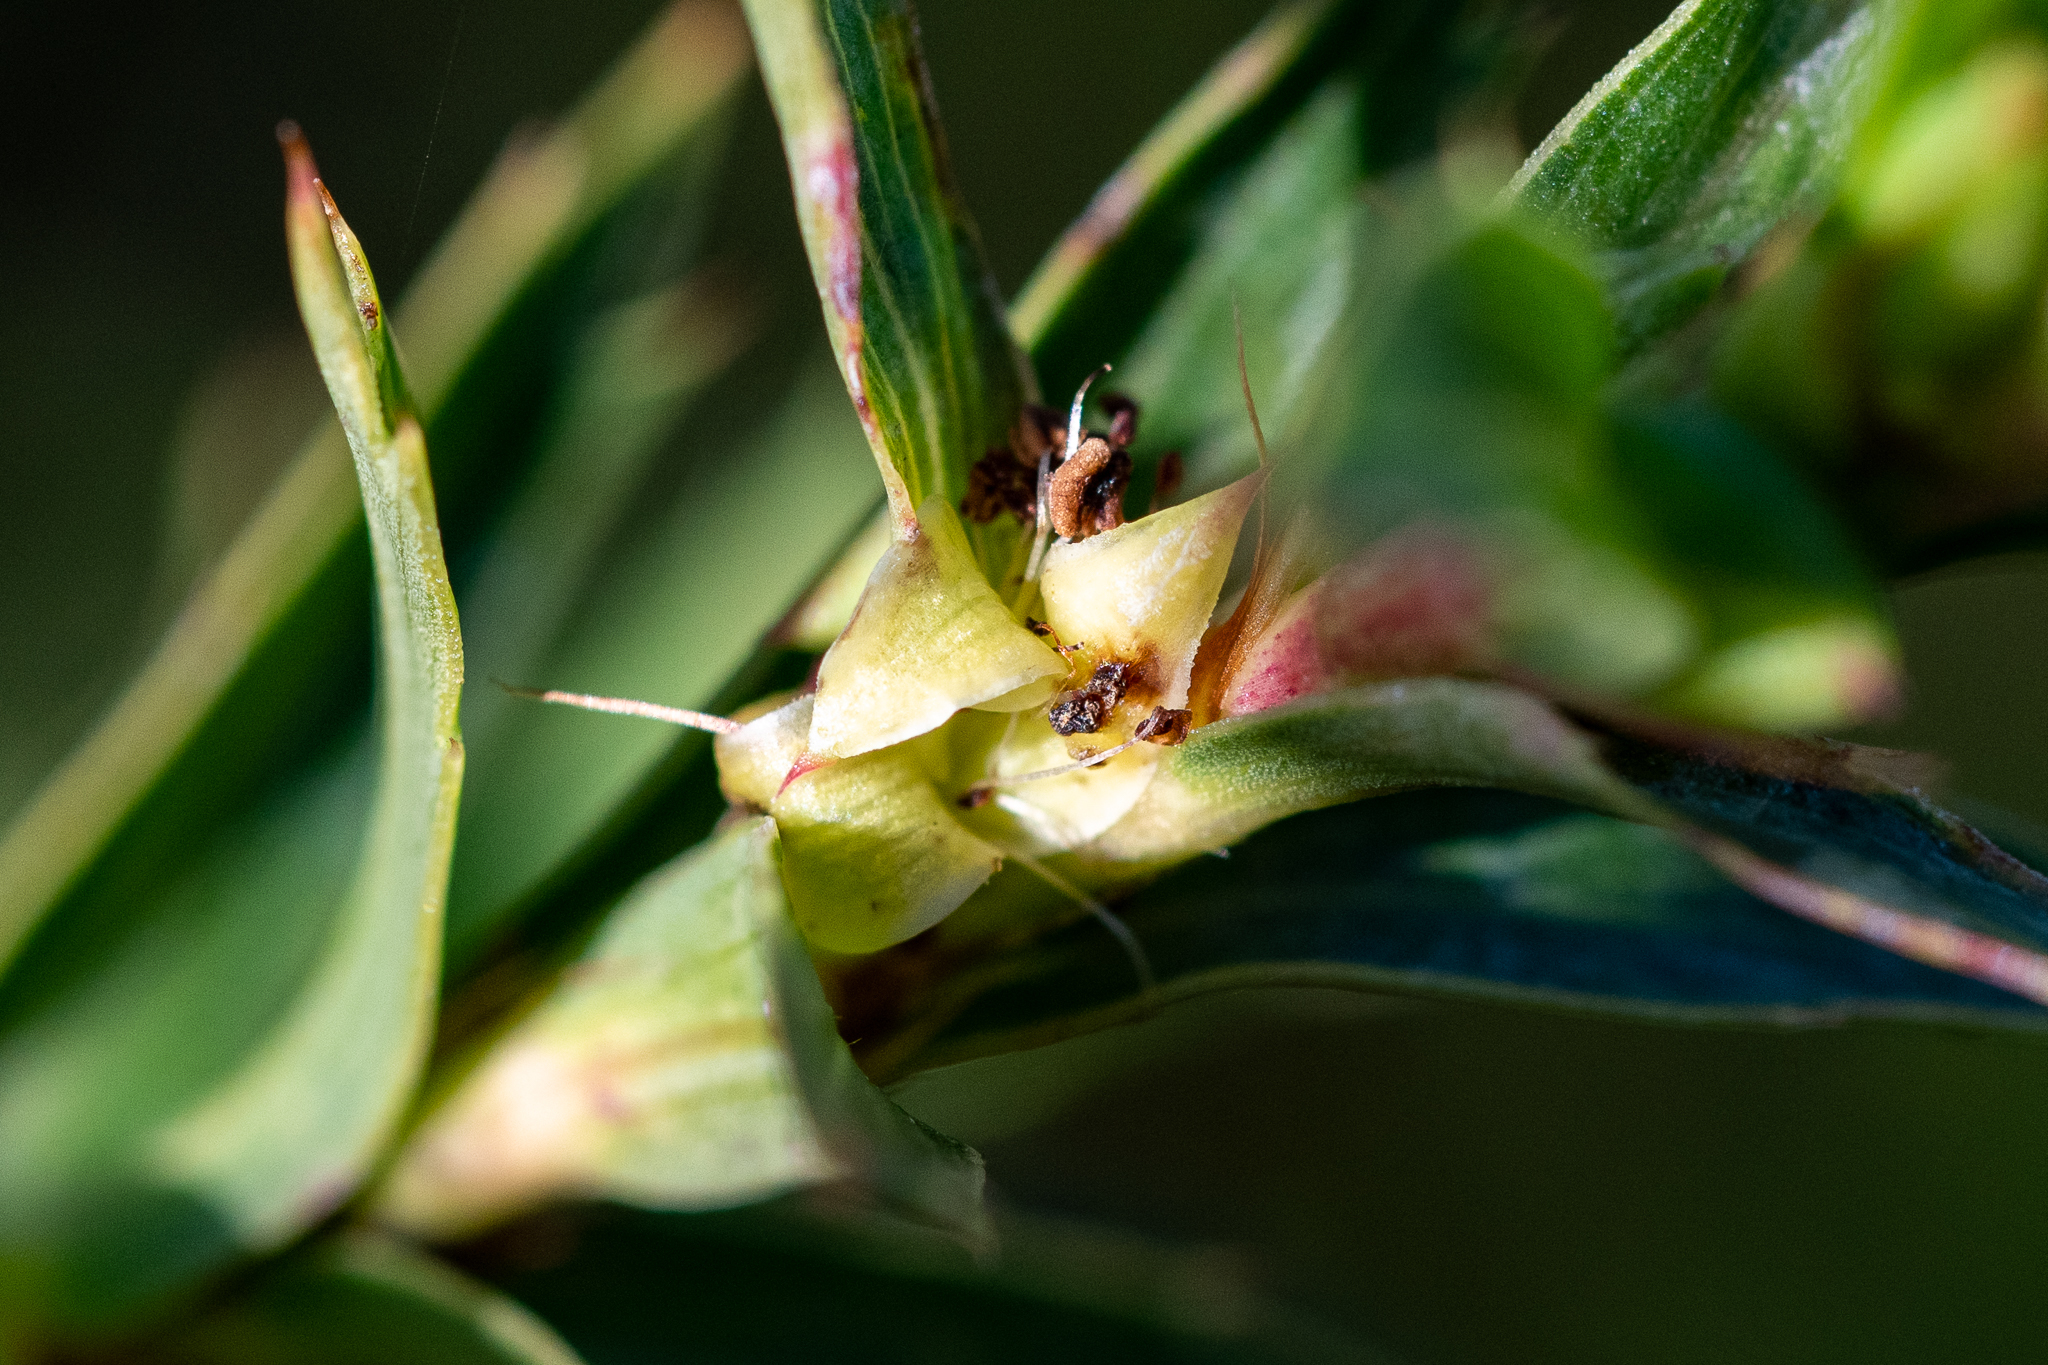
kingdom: Plantae
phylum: Tracheophyta
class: Magnoliopsida
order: Rosales
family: Rosaceae
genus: Cliffortia
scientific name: Cliffortia prionota
